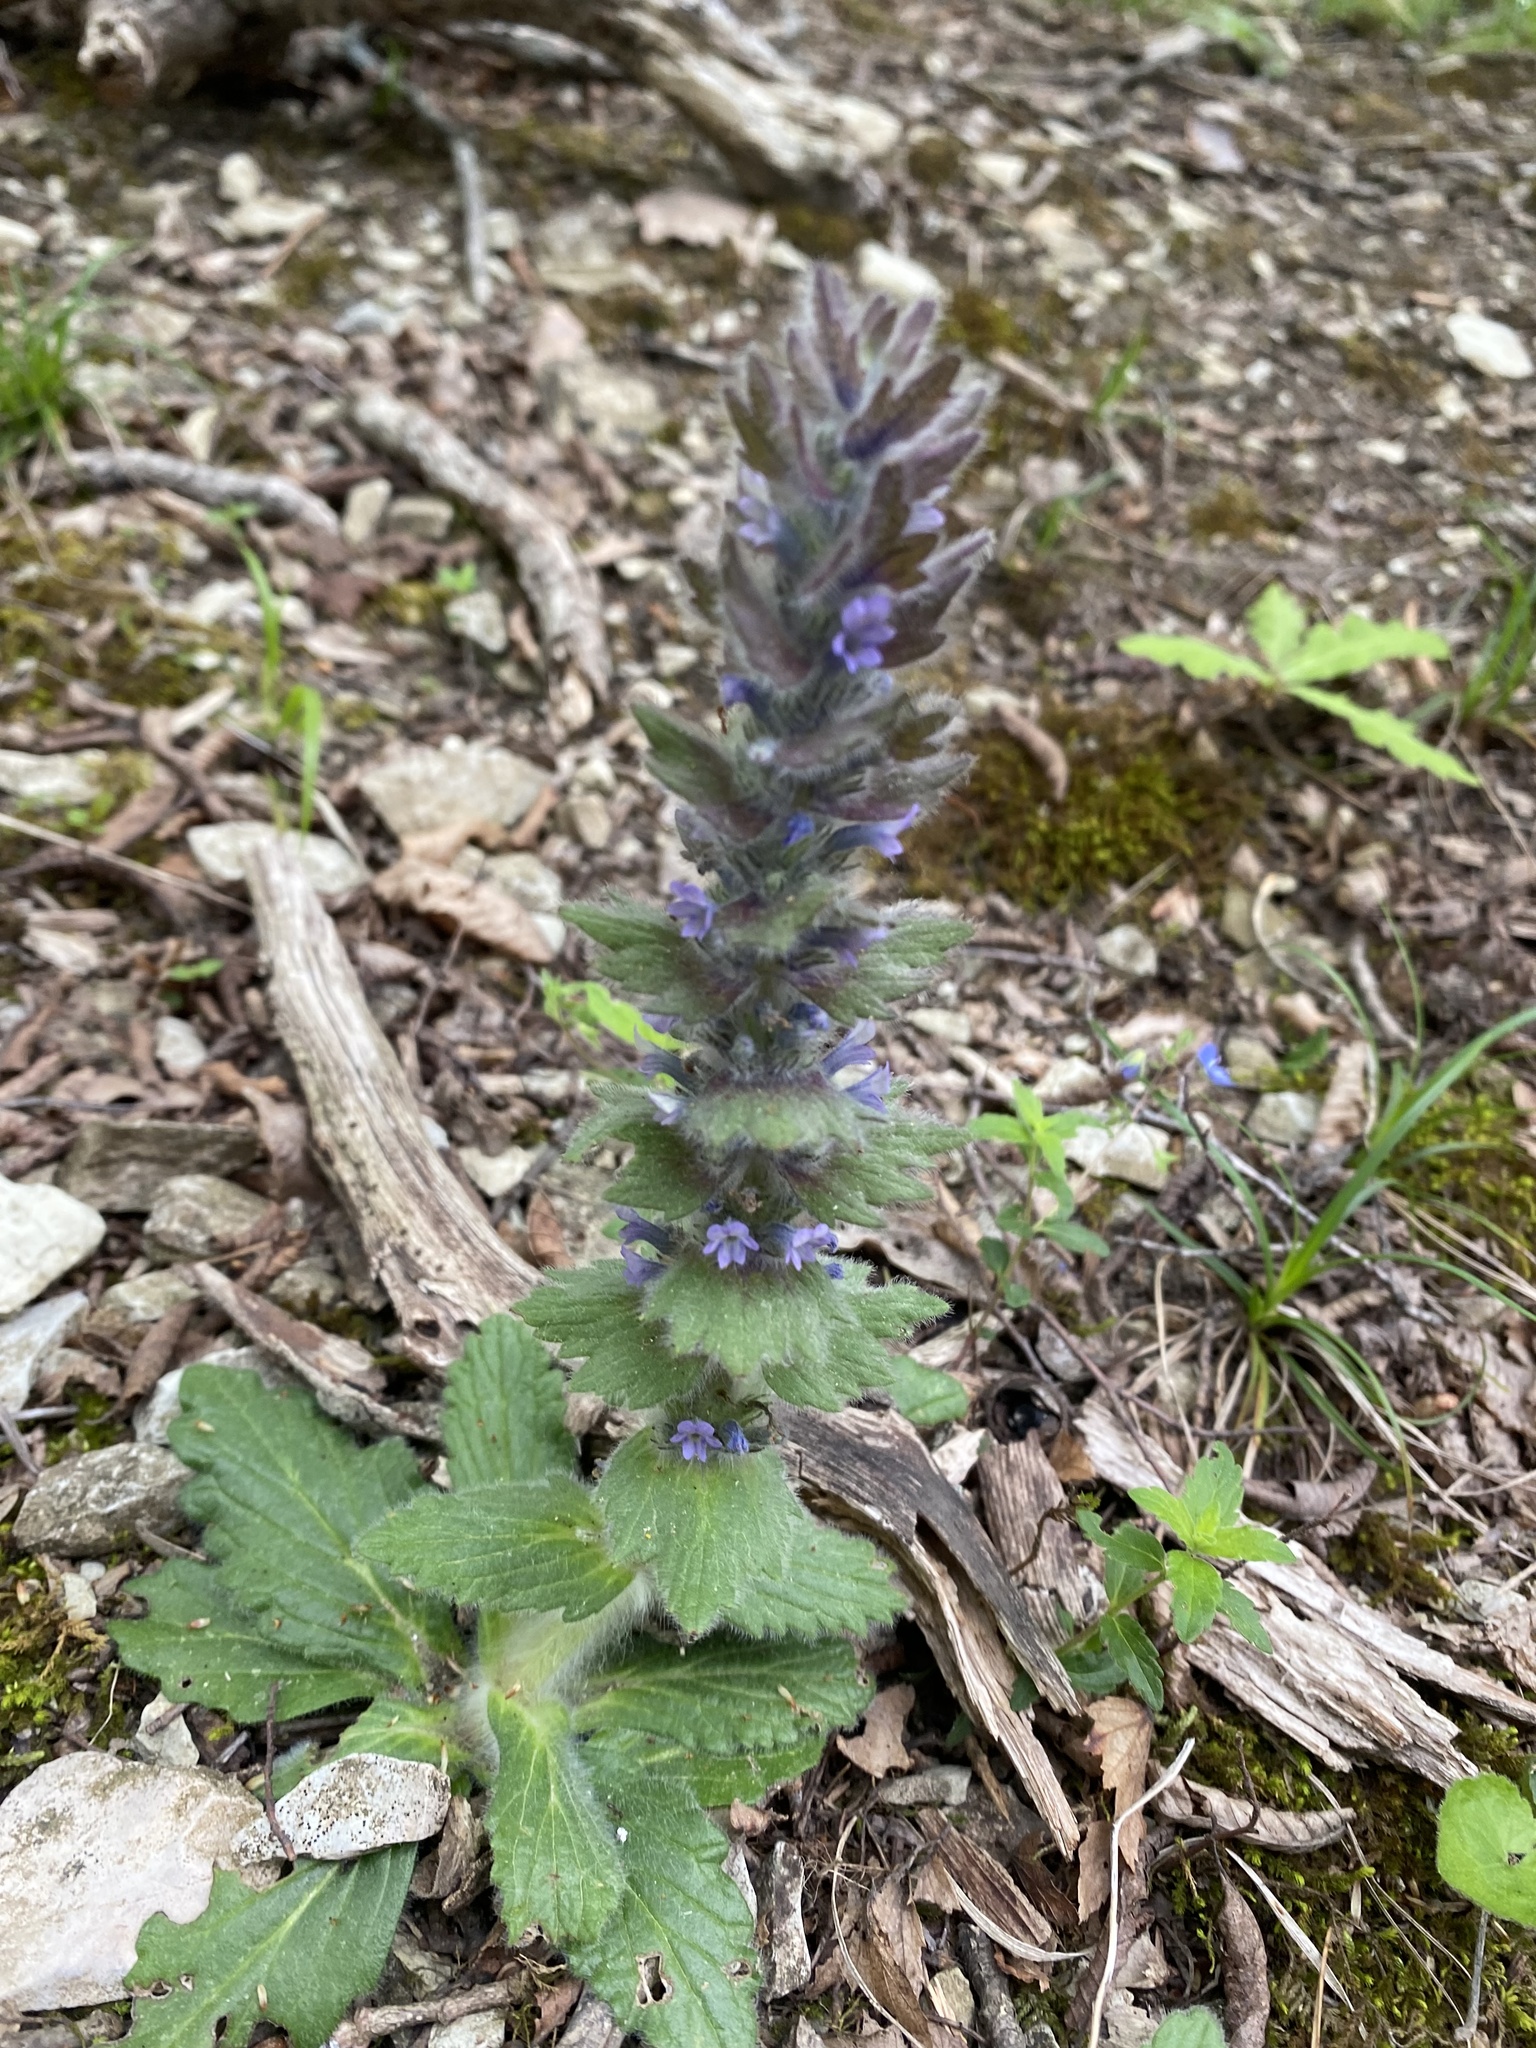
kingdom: Plantae
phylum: Tracheophyta
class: Magnoliopsida
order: Lamiales
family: Lamiaceae
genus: Ajuga
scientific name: Ajuga orientalis
